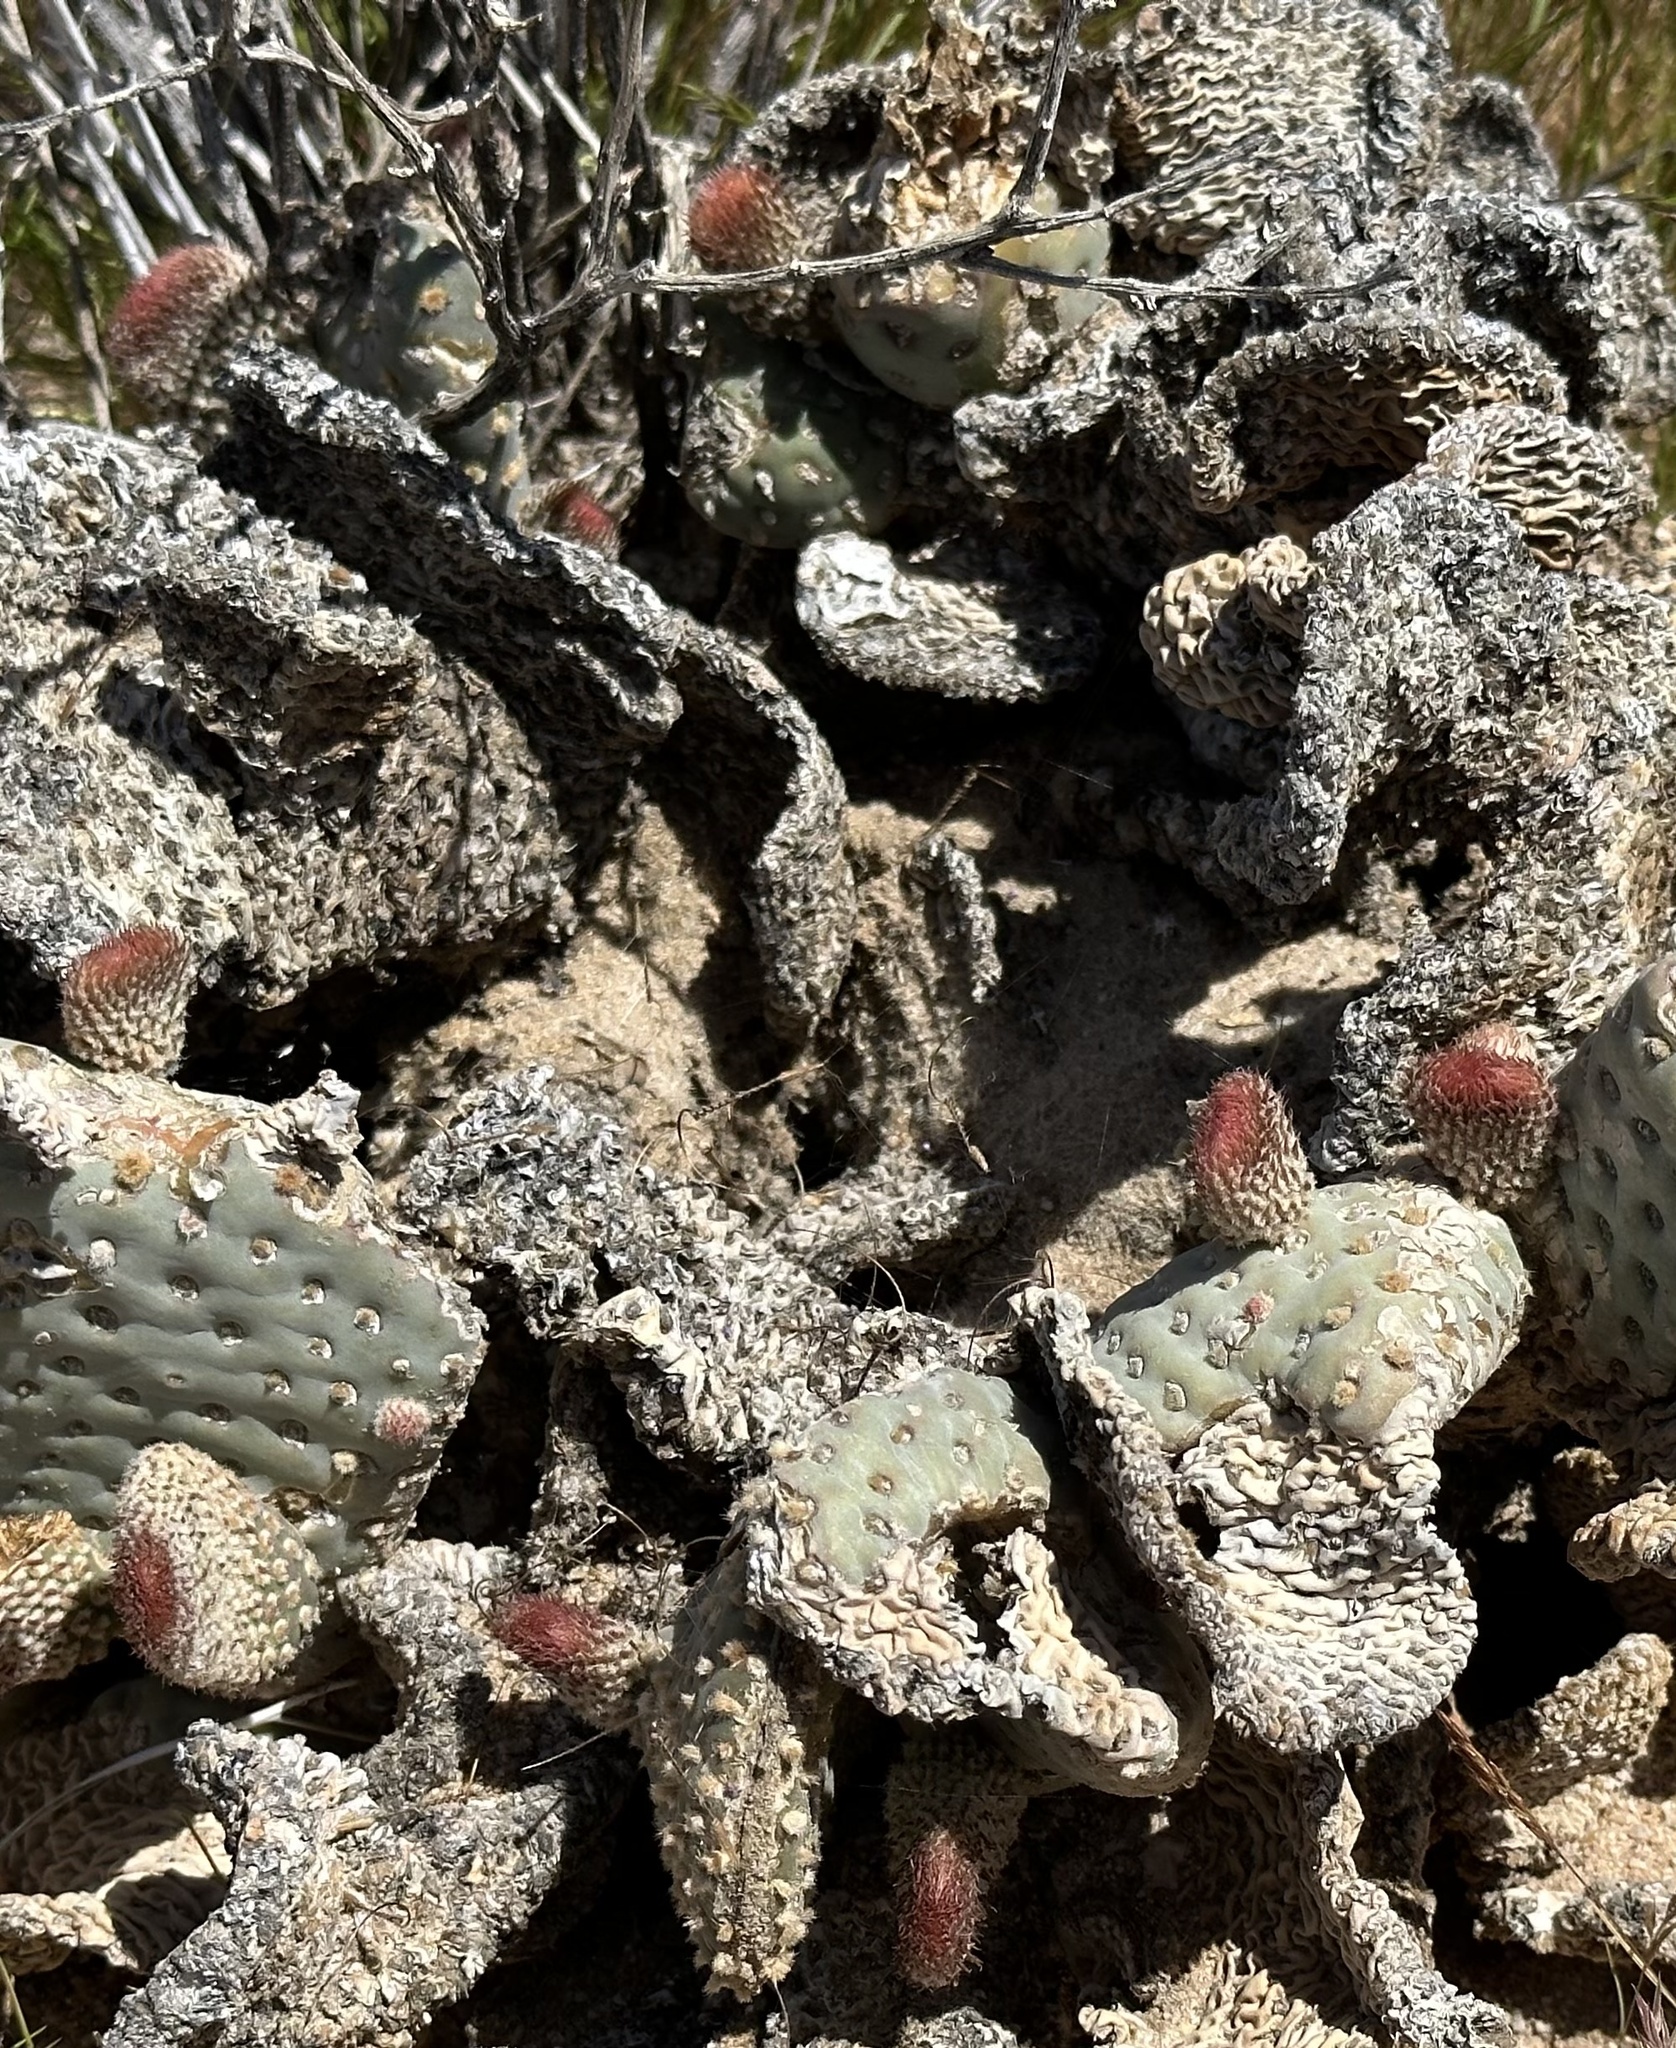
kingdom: Plantae
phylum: Tracheophyta
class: Magnoliopsida
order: Caryophyllales
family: Cactaceae
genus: Opuntia
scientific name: Opuntia basilaris
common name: Beavertail prickly-pear
